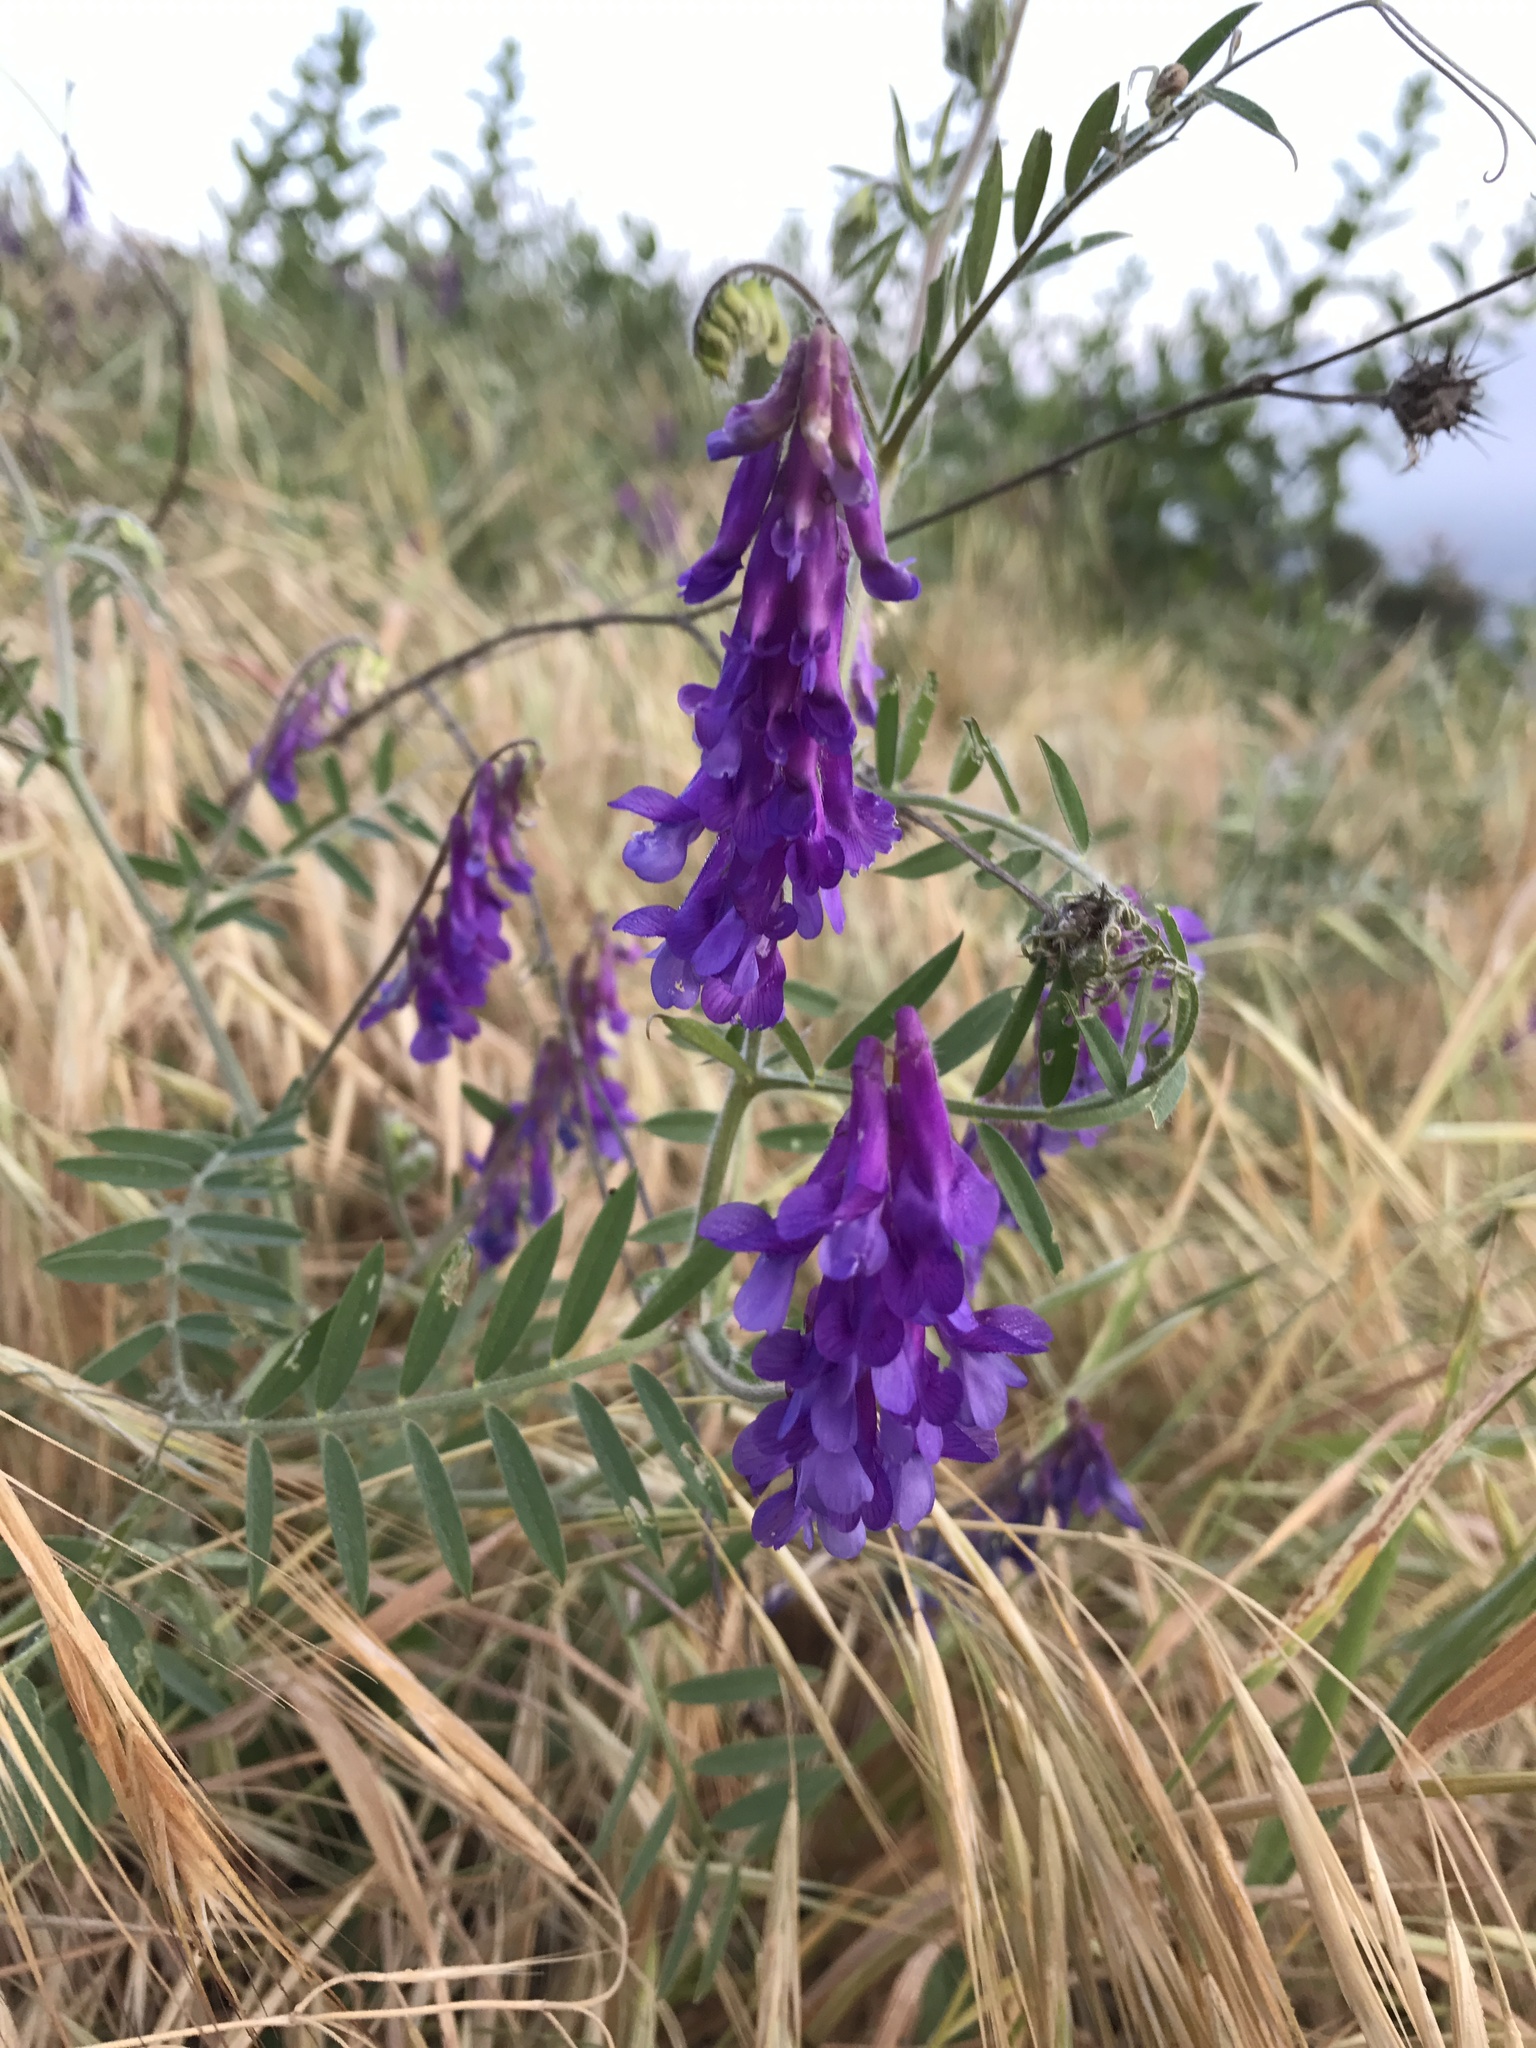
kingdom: Plantae
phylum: Tracheophyta
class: Magnoliopsida
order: Fabales
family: Fabaceae
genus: Vicia
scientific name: Vicia villosa
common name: Fodder vetch
